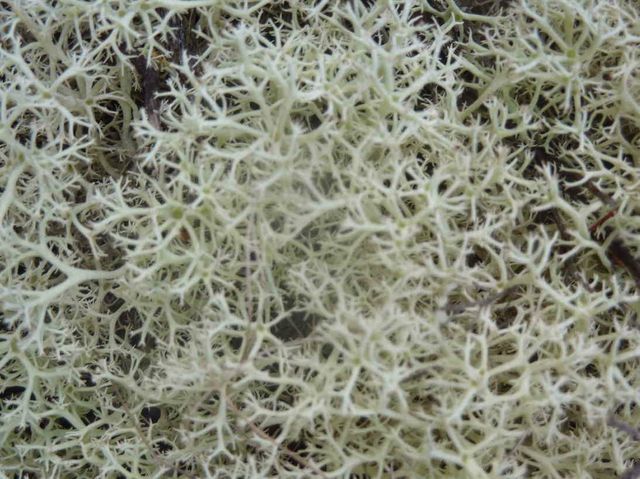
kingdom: Fungi
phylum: Ascomycota
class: Lecanoromycetes
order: Lecanorales
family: Cladoniaceae
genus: Cladonia
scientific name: Cladonia confusa
